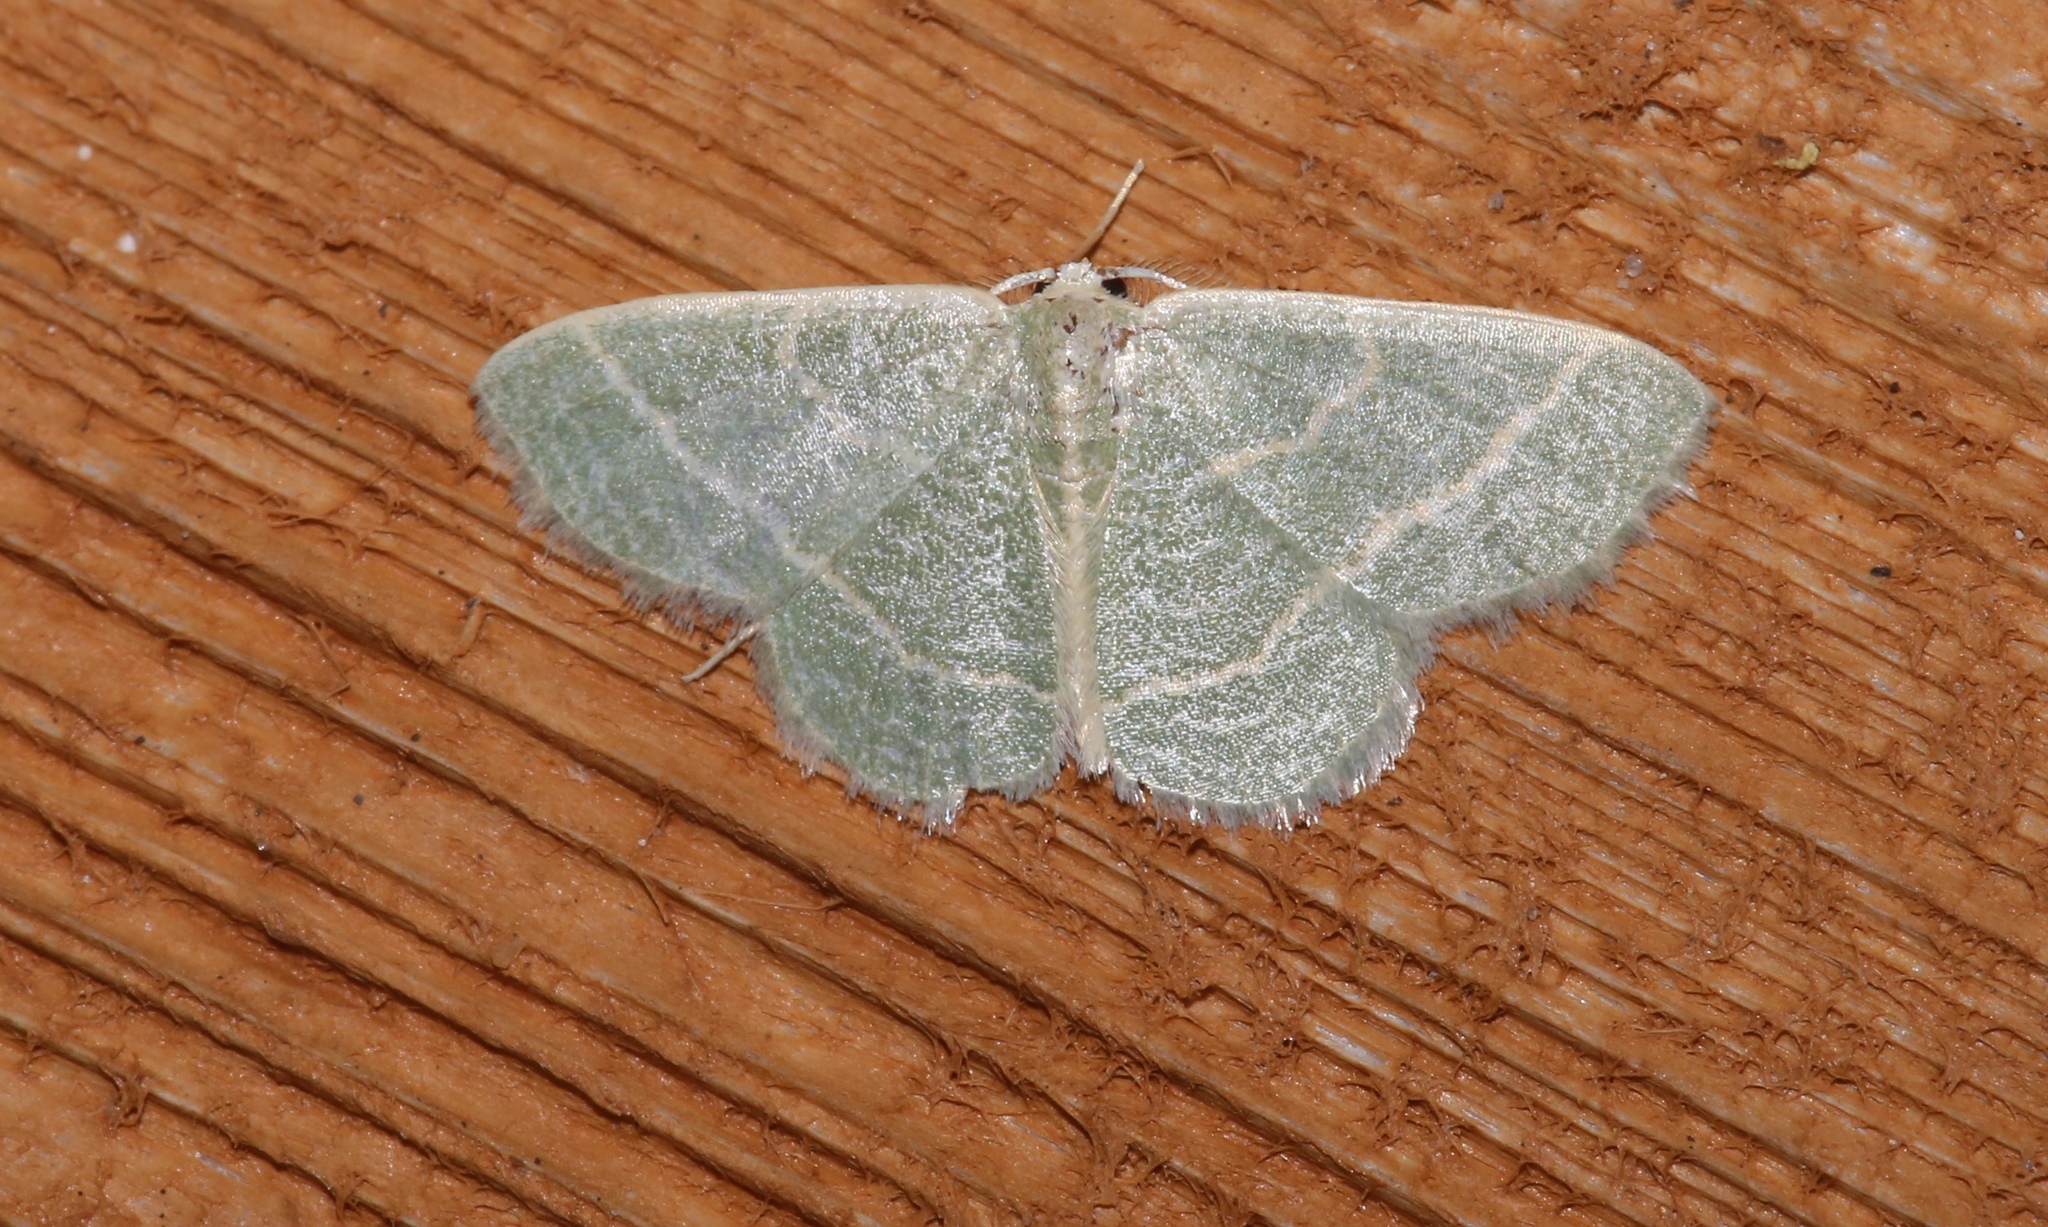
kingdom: Animalia
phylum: Arthropoda
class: Insecta
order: Lepidoptera
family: Geometridae
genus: Chlorochlamys
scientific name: Chlorochlamys chloroleucaria
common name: Blackberry looper
